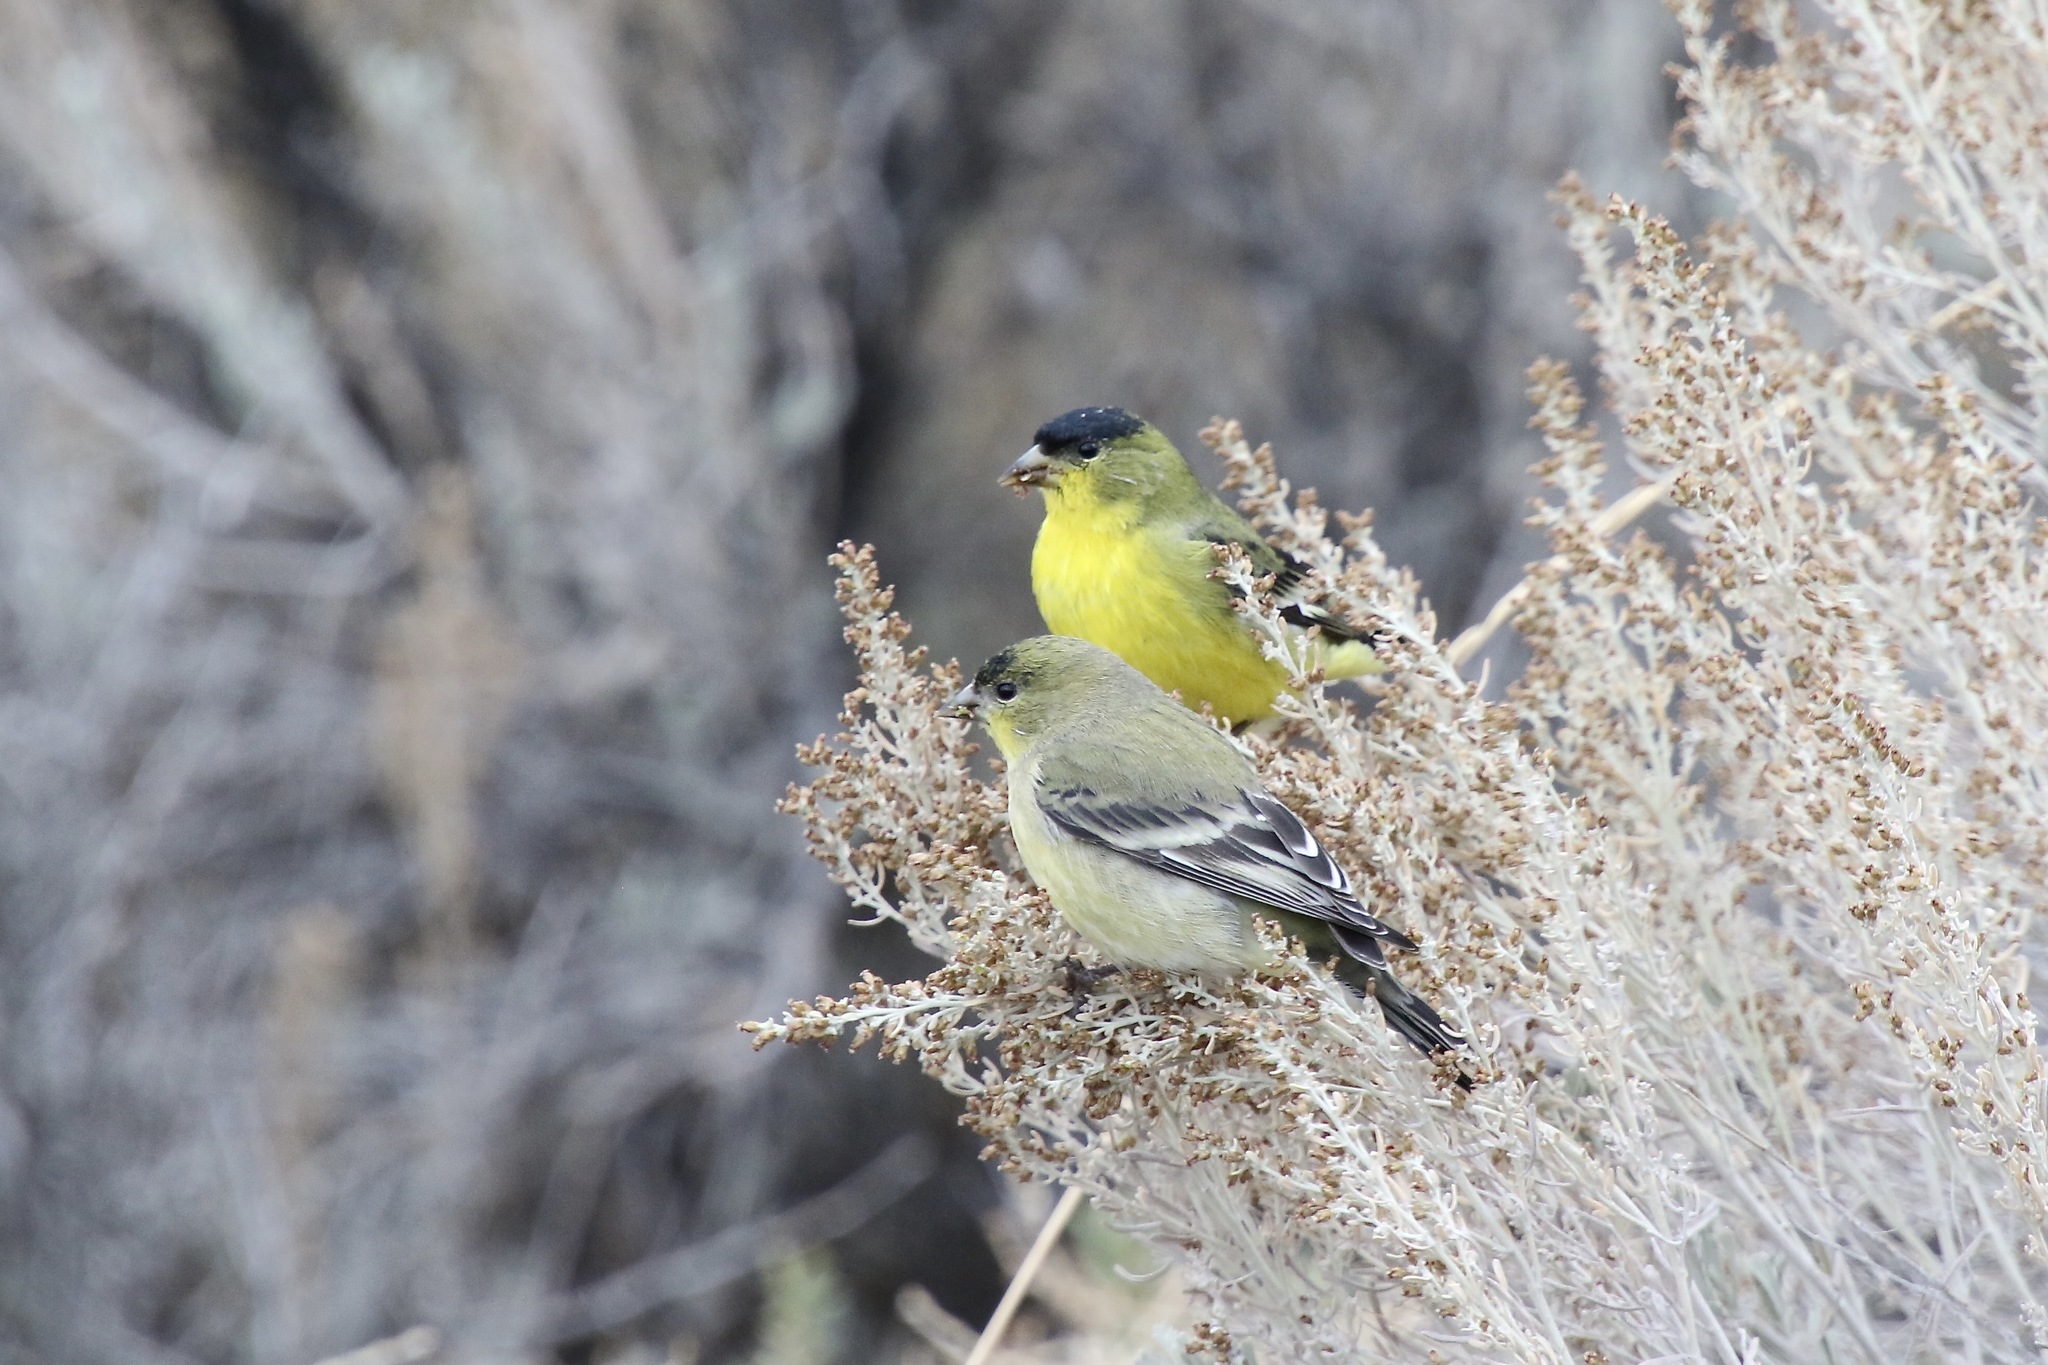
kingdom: Animalia
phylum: Chordata
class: Aves
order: Passeriformes
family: Fringillidae
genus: Spinus
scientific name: Spinus psaltria
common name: Lesser goldfinch
